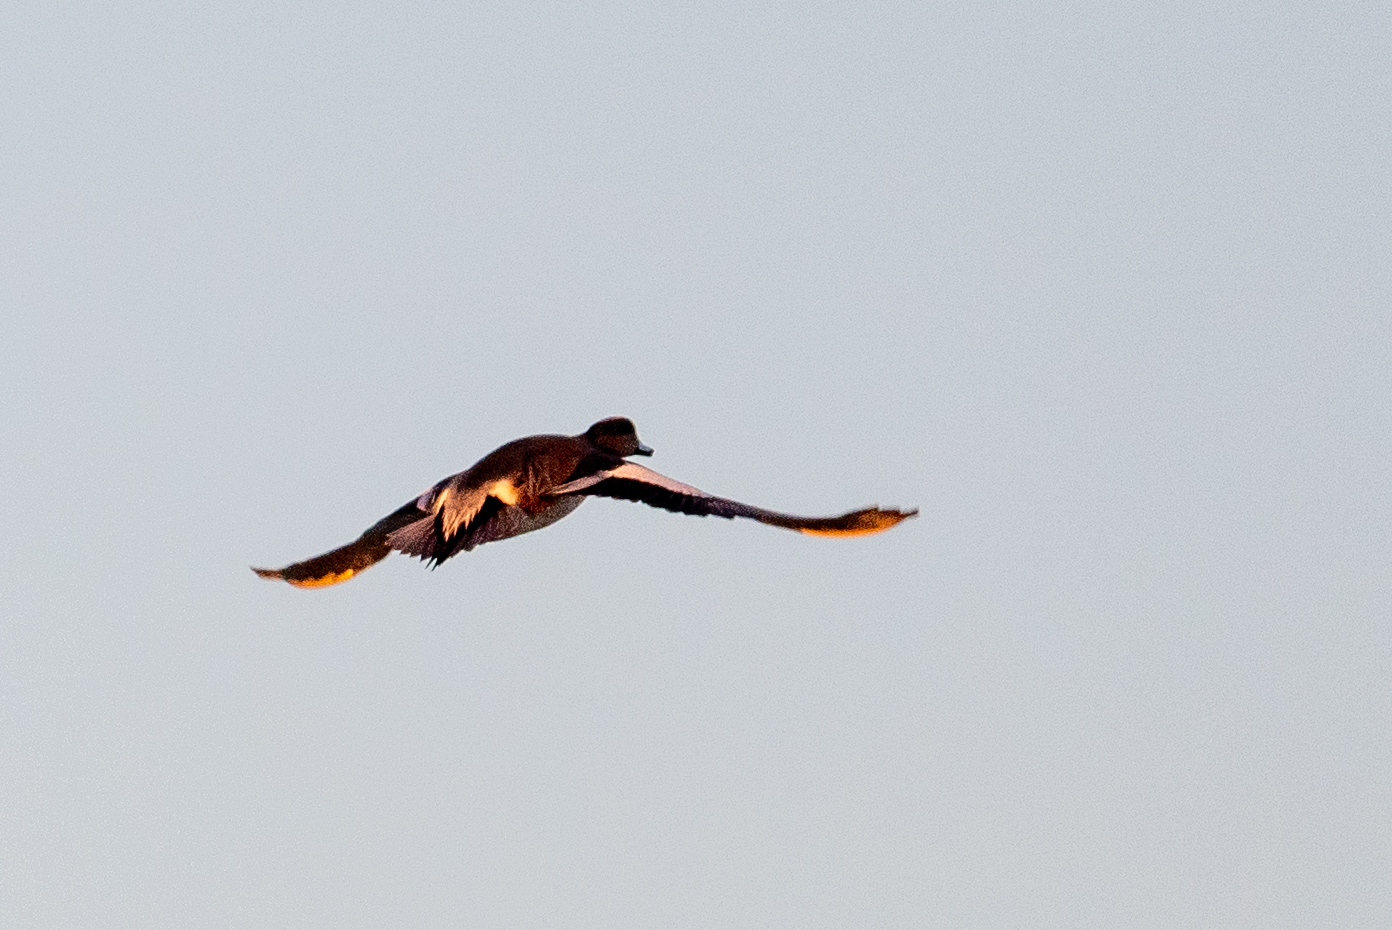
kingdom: Animalia
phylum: Chordata
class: Aves
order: Anseriformes
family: Anatidae
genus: Mareca
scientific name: Mareca americana
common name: American wigeon
